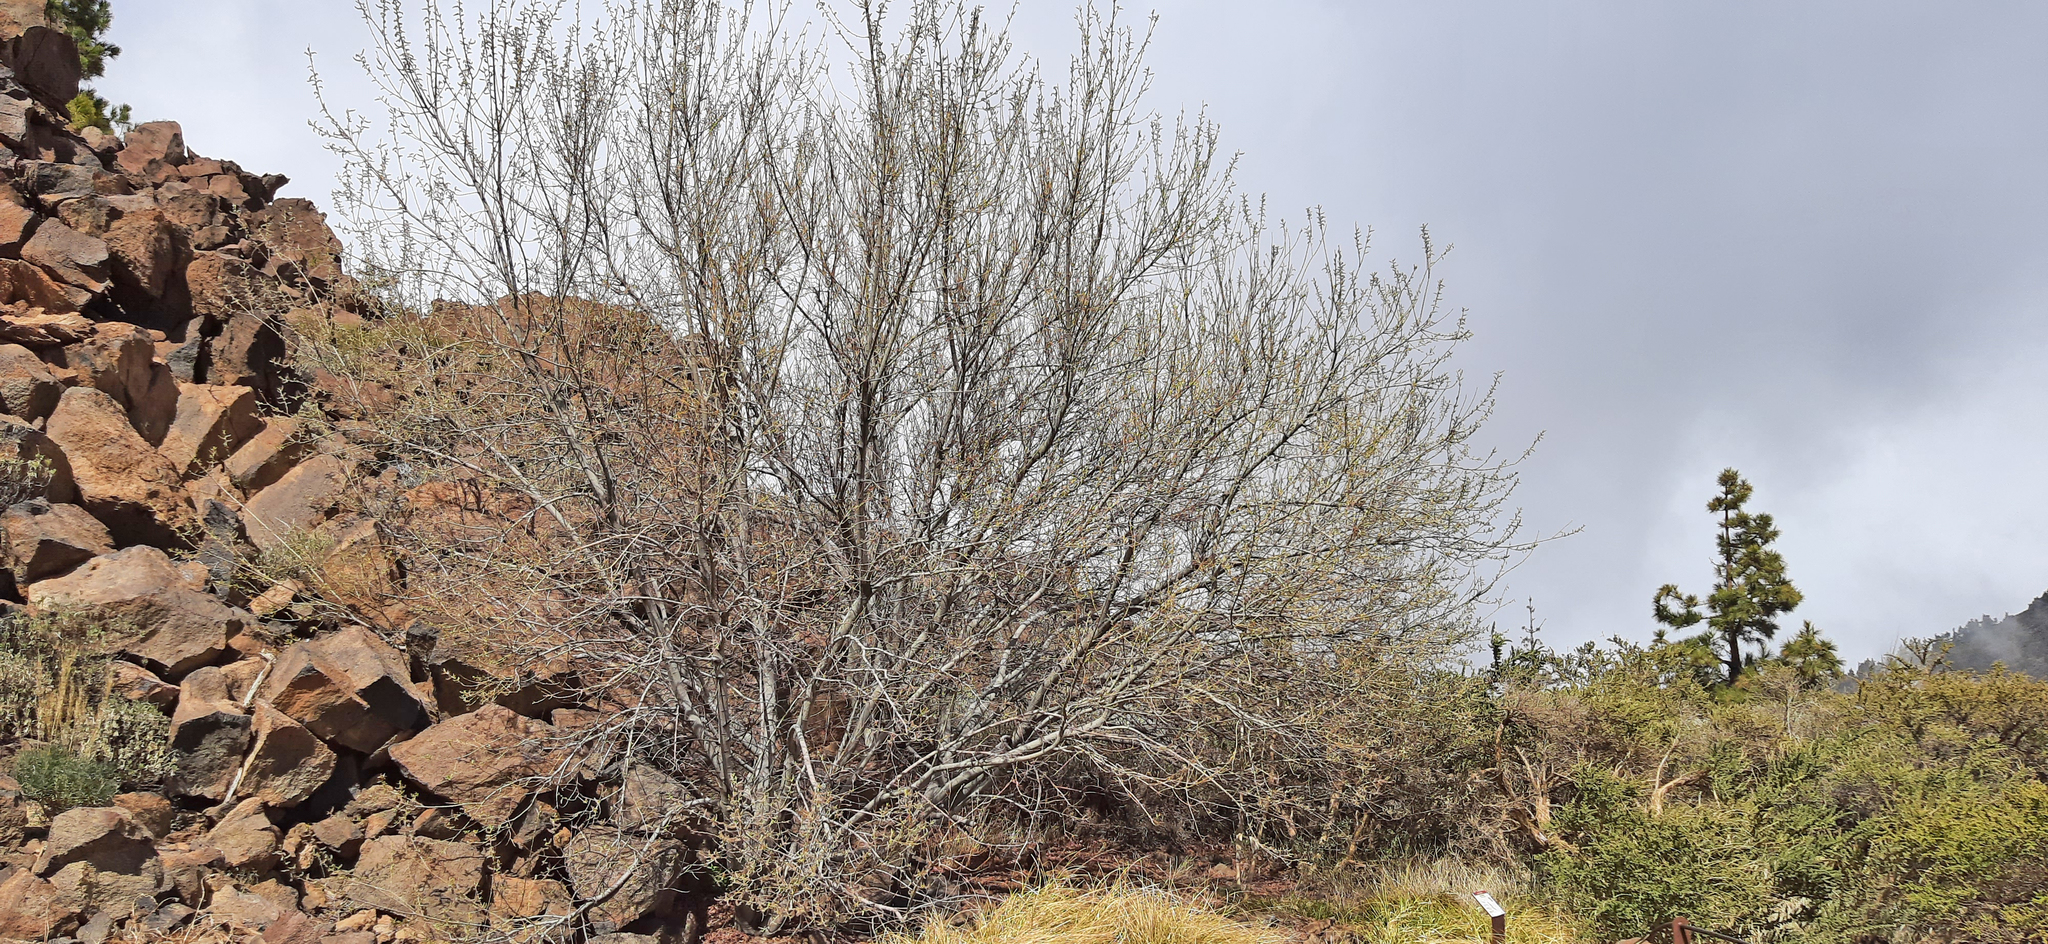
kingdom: Plantae
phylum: Tracheophyta
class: Magnoliopsida
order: Malpighiales
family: Salicaceae
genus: Salix
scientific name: Salix canariensis
